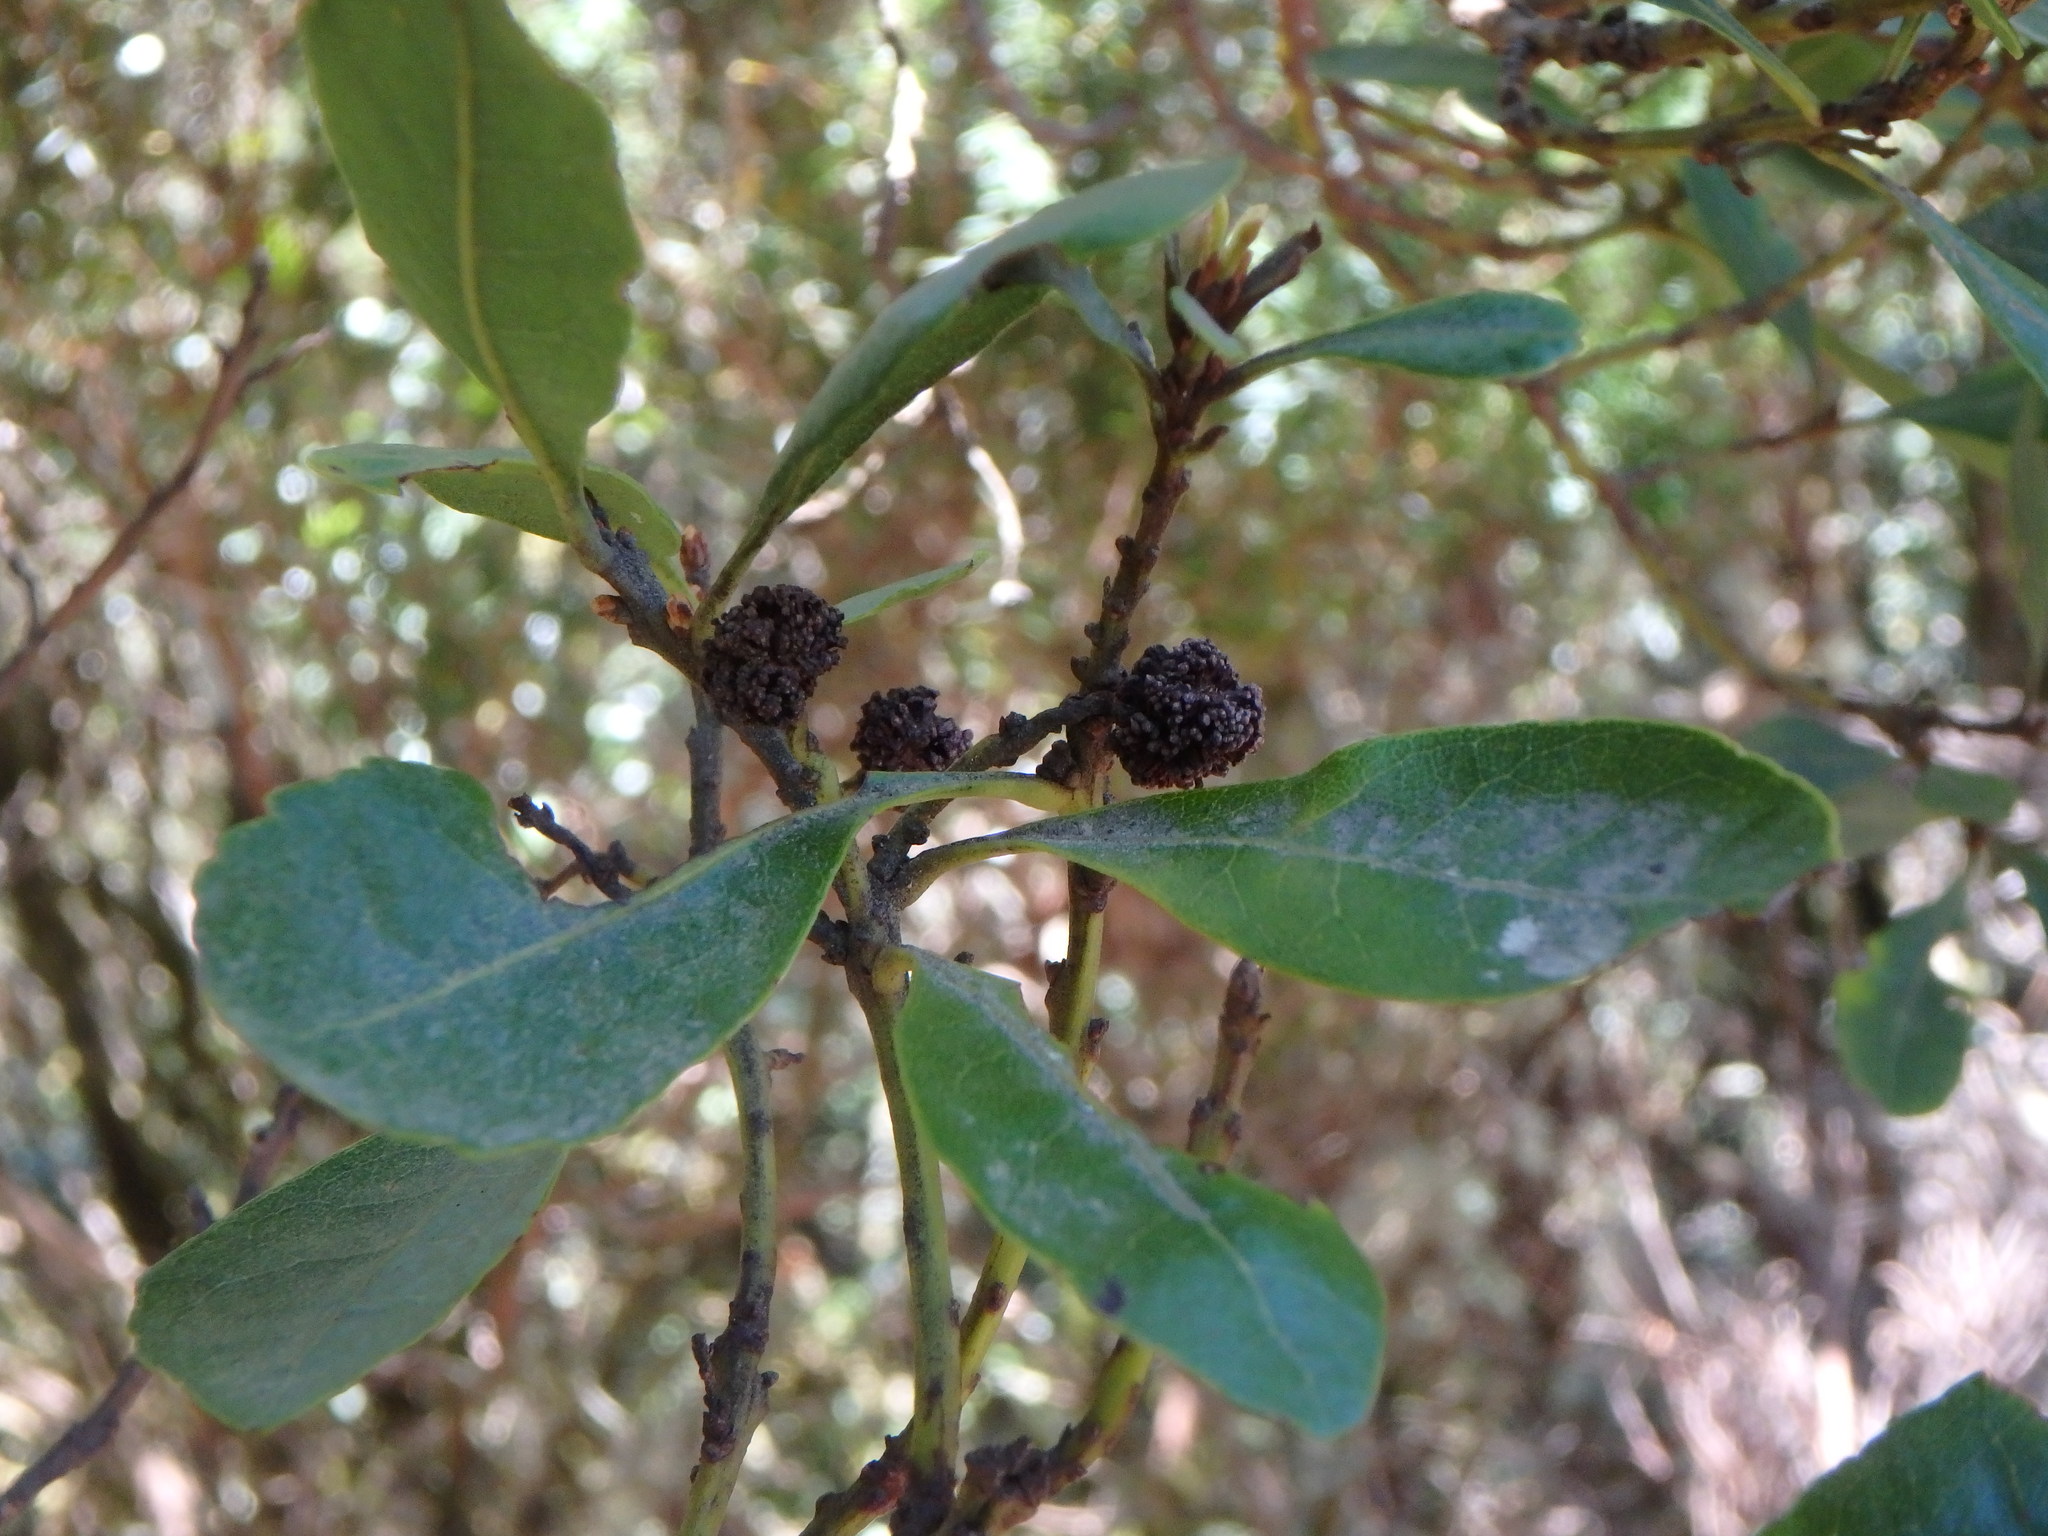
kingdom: Plantae
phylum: Tracheophyta
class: Magnoliopsida
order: Fagales
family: Myricaceae
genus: Morella
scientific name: Morella faya
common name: Firetree
